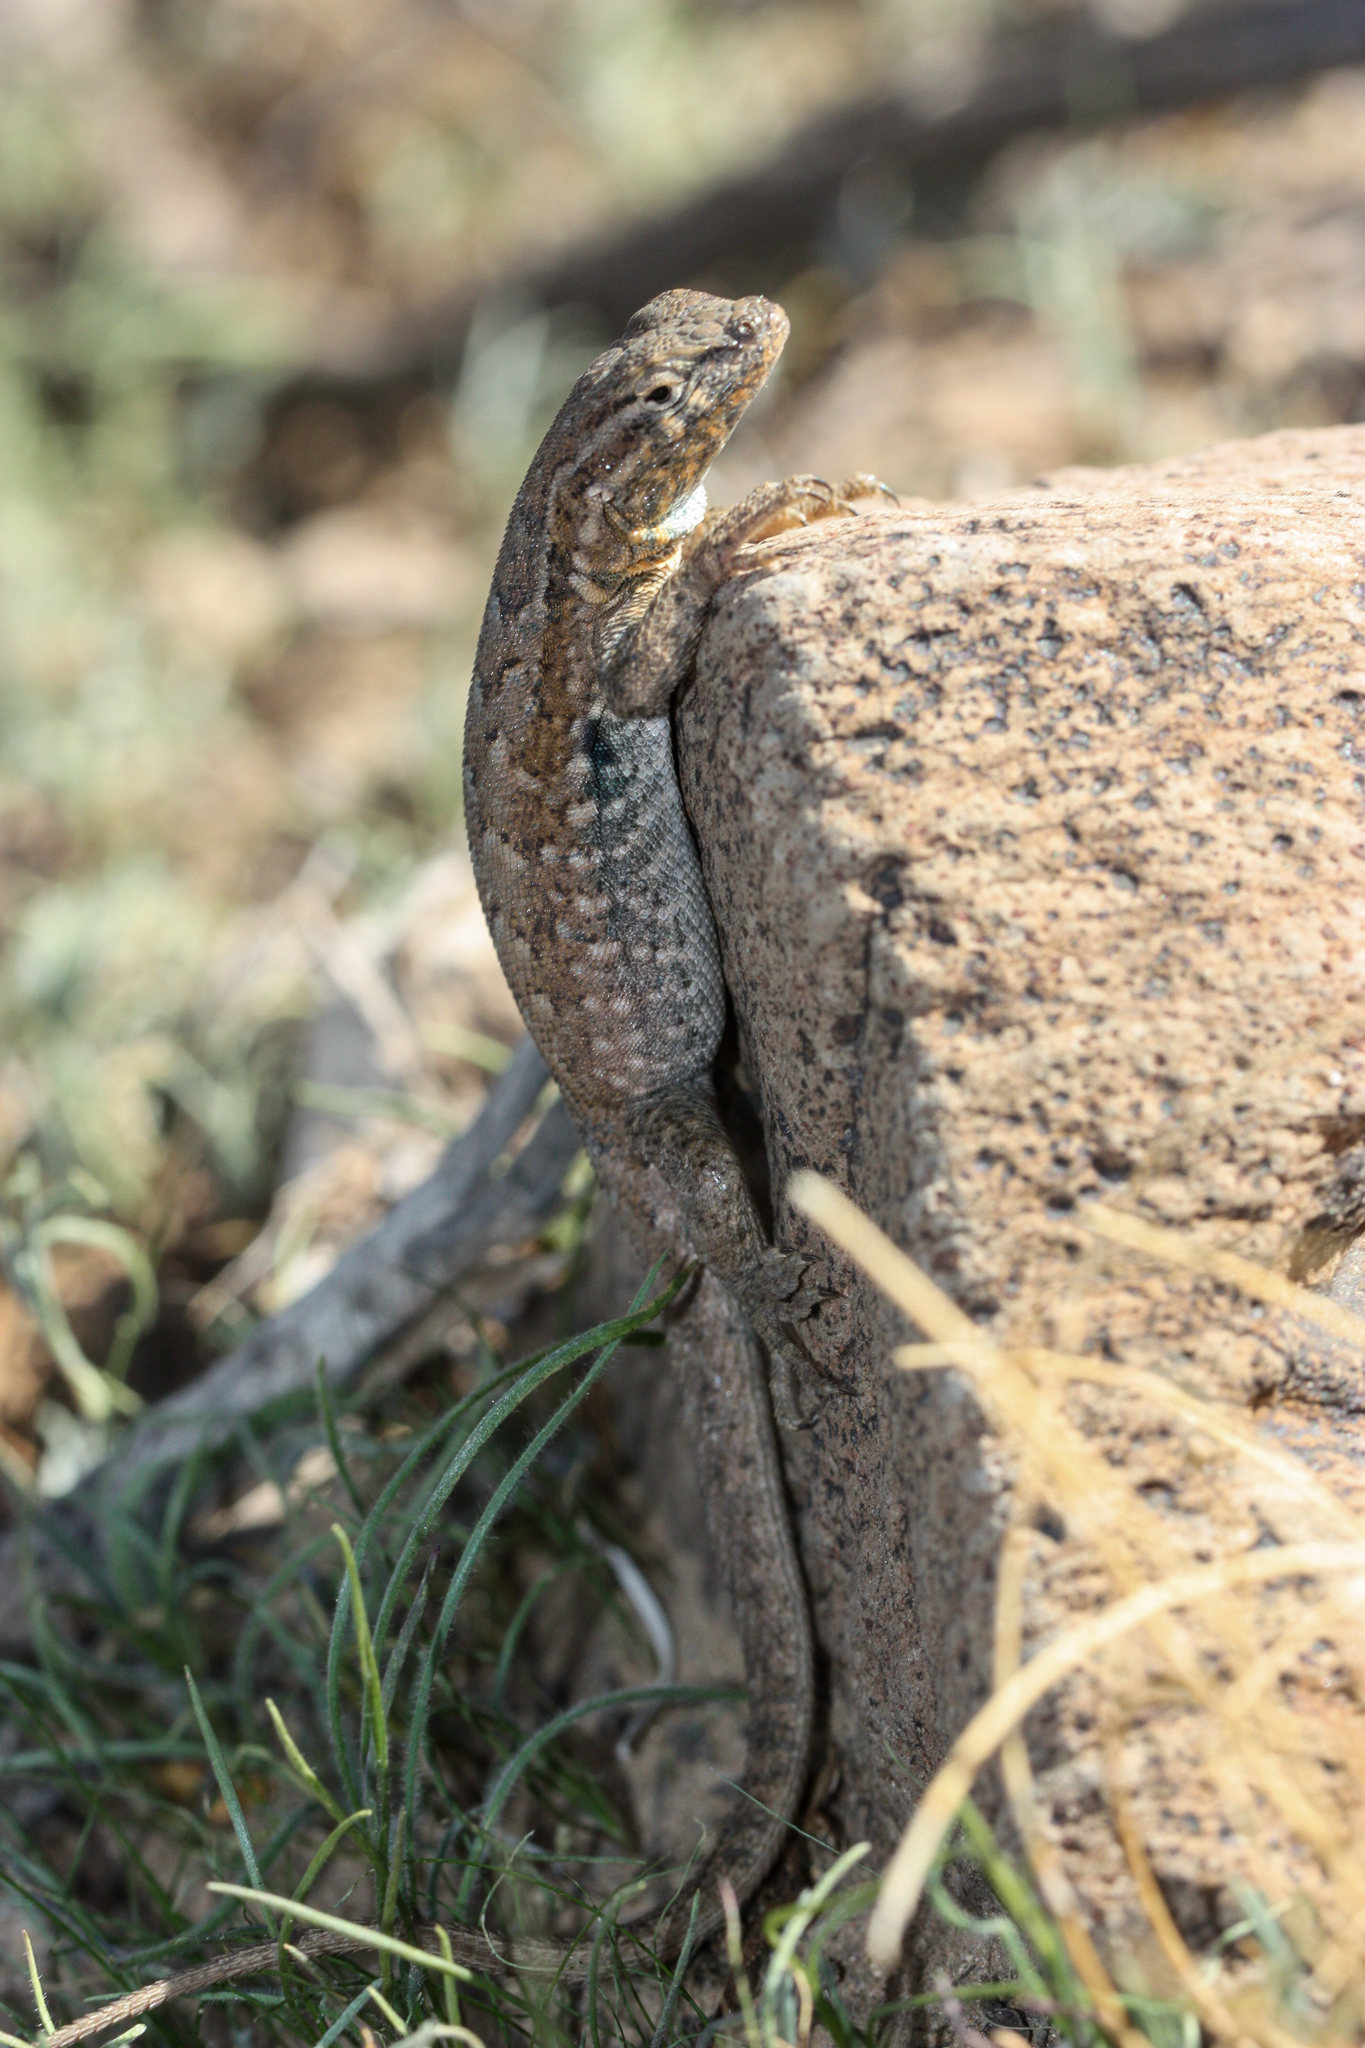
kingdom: Animalia
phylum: Chordata
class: Squamata
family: Phrynosomatidae
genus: Uta
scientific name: Uta stansburiana
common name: Side-blotched lizard
